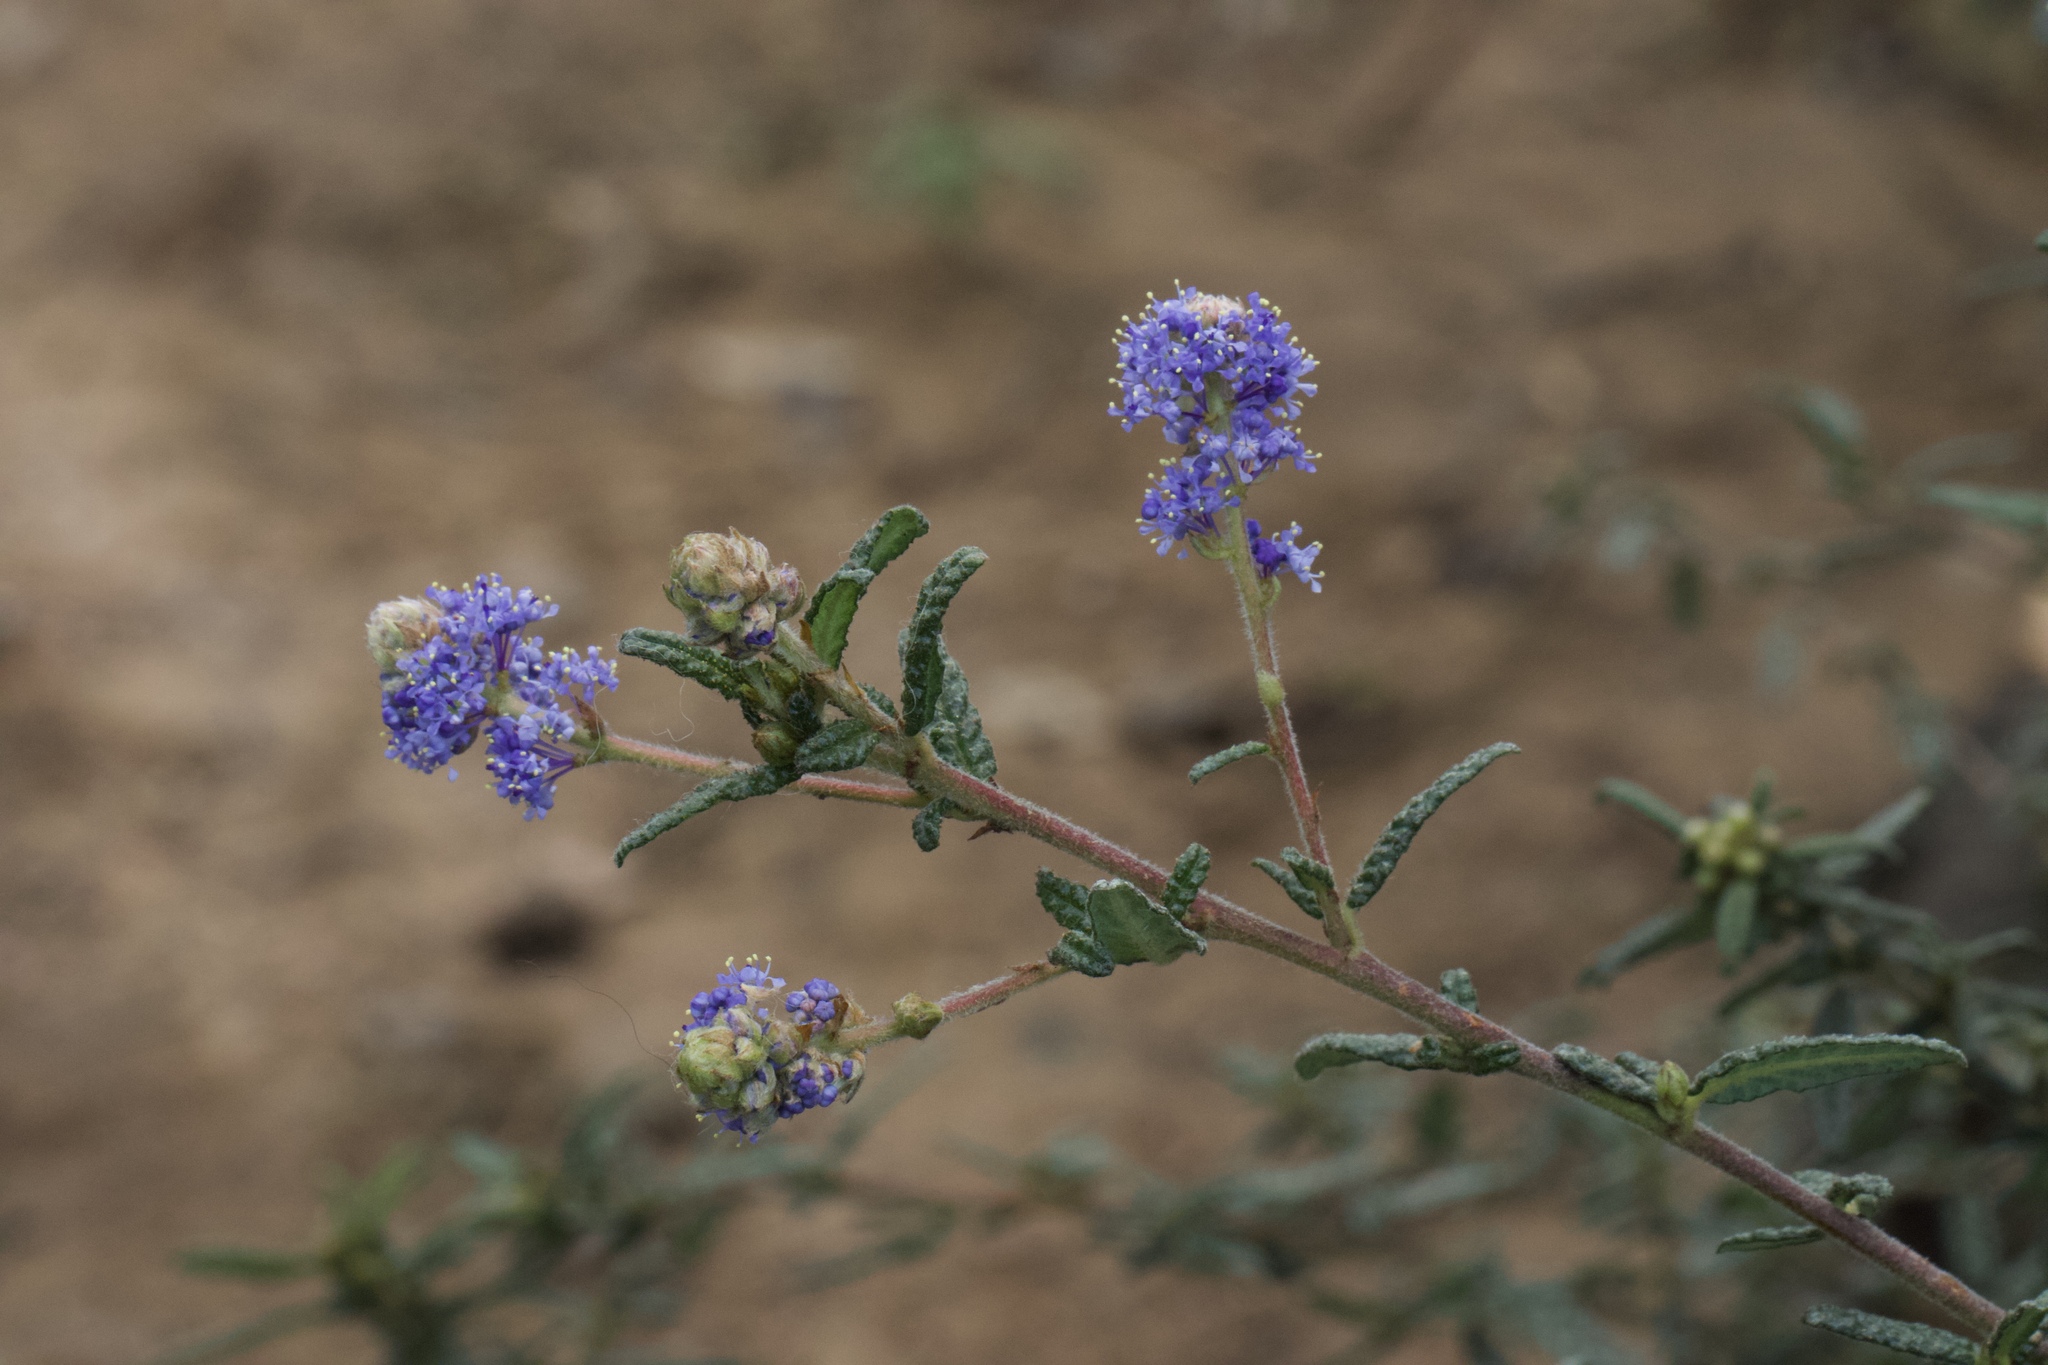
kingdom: Plantae
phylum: Tracheophyta
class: Magnoliopsida
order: Rosales
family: Rhamnaceae
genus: Ceanothus
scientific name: Ceanothus papillosus
